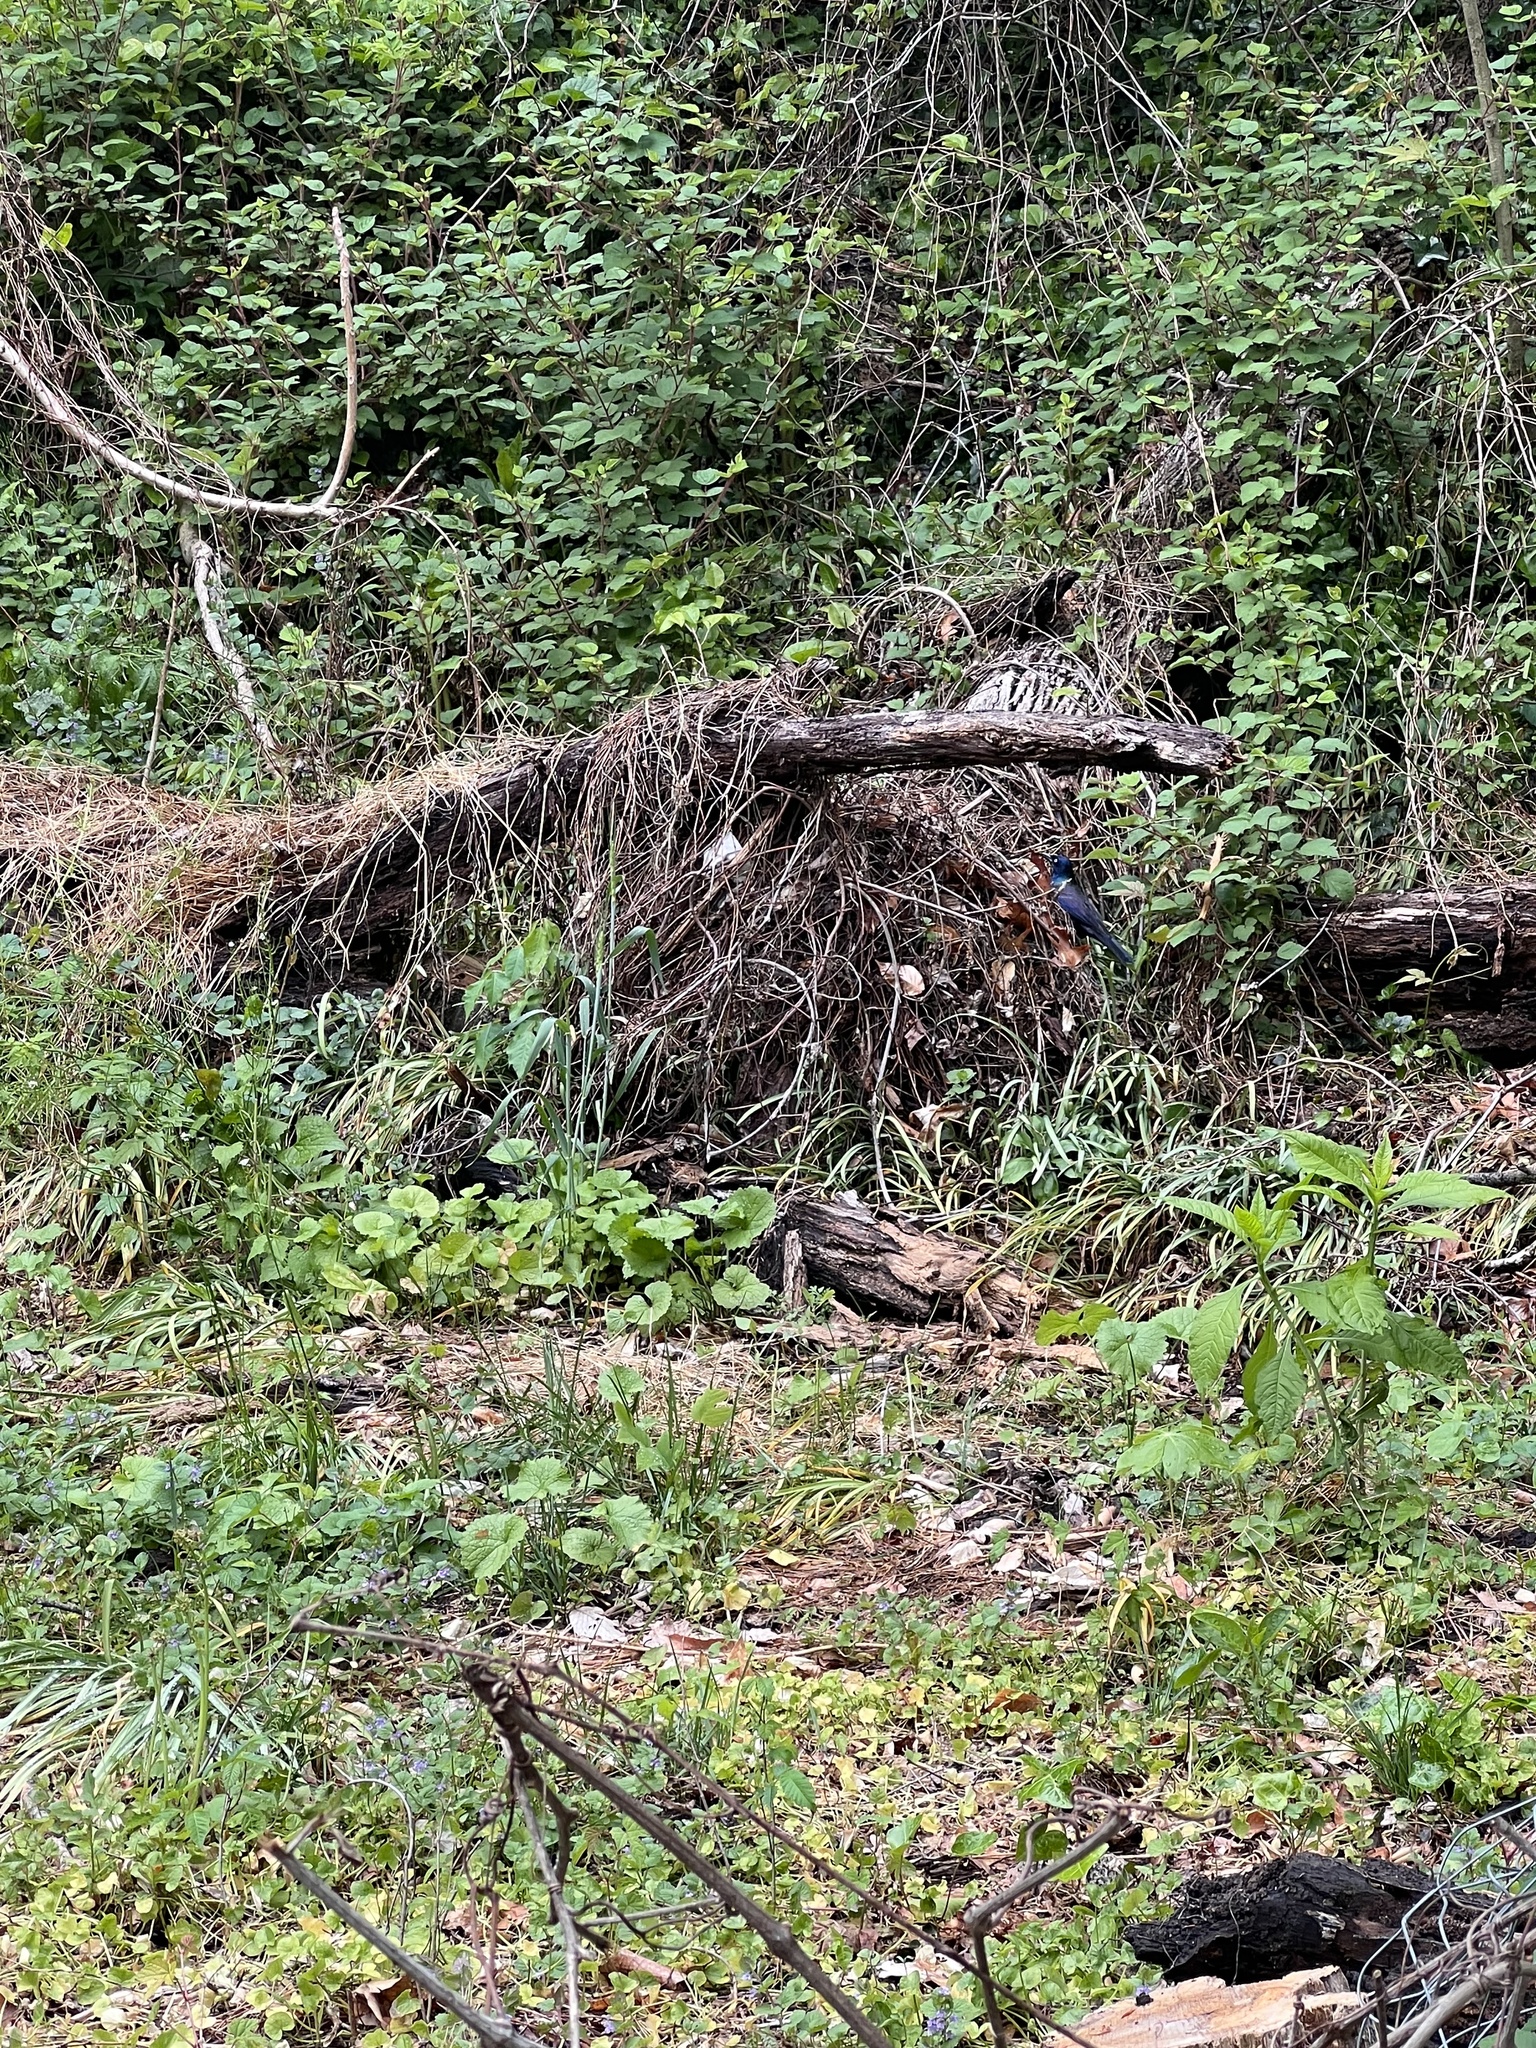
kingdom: Animalia
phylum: Chordata
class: Aves
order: Passeriformes
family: Icteridae
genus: Quiscalus
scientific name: Quiscalus quiscula
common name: Common grackle
